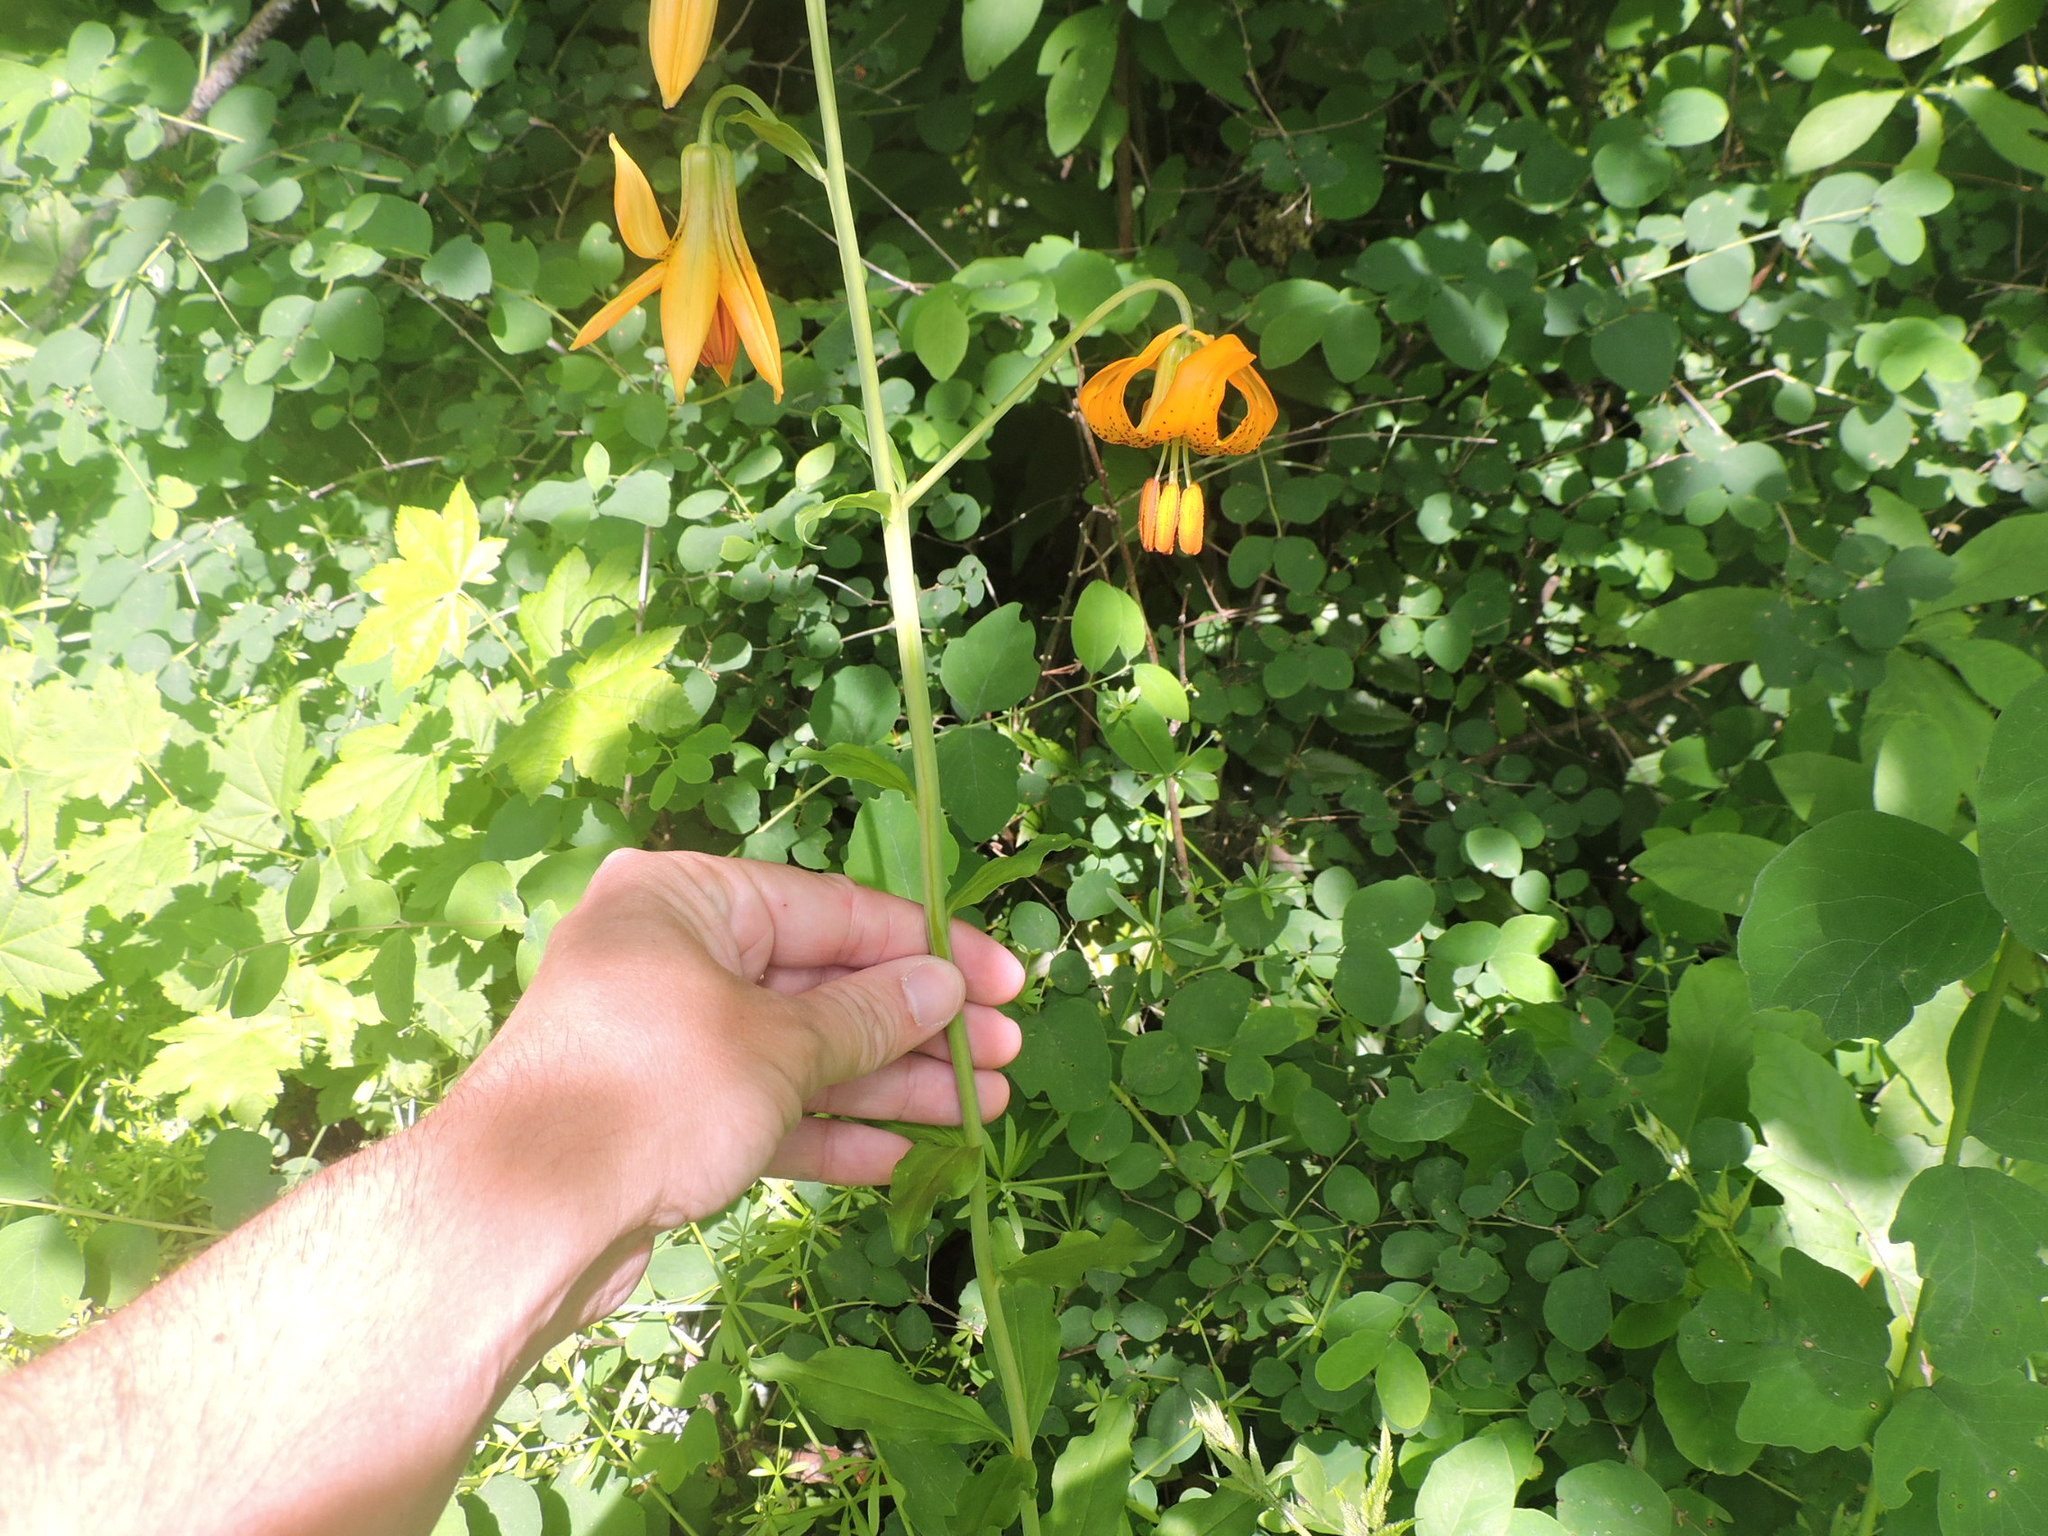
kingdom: Plantae
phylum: Tracheophyta
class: Liliopsida
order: Liliales
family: Liliaceae
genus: Lilium
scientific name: Lilium columbianum
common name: Columbia lily
